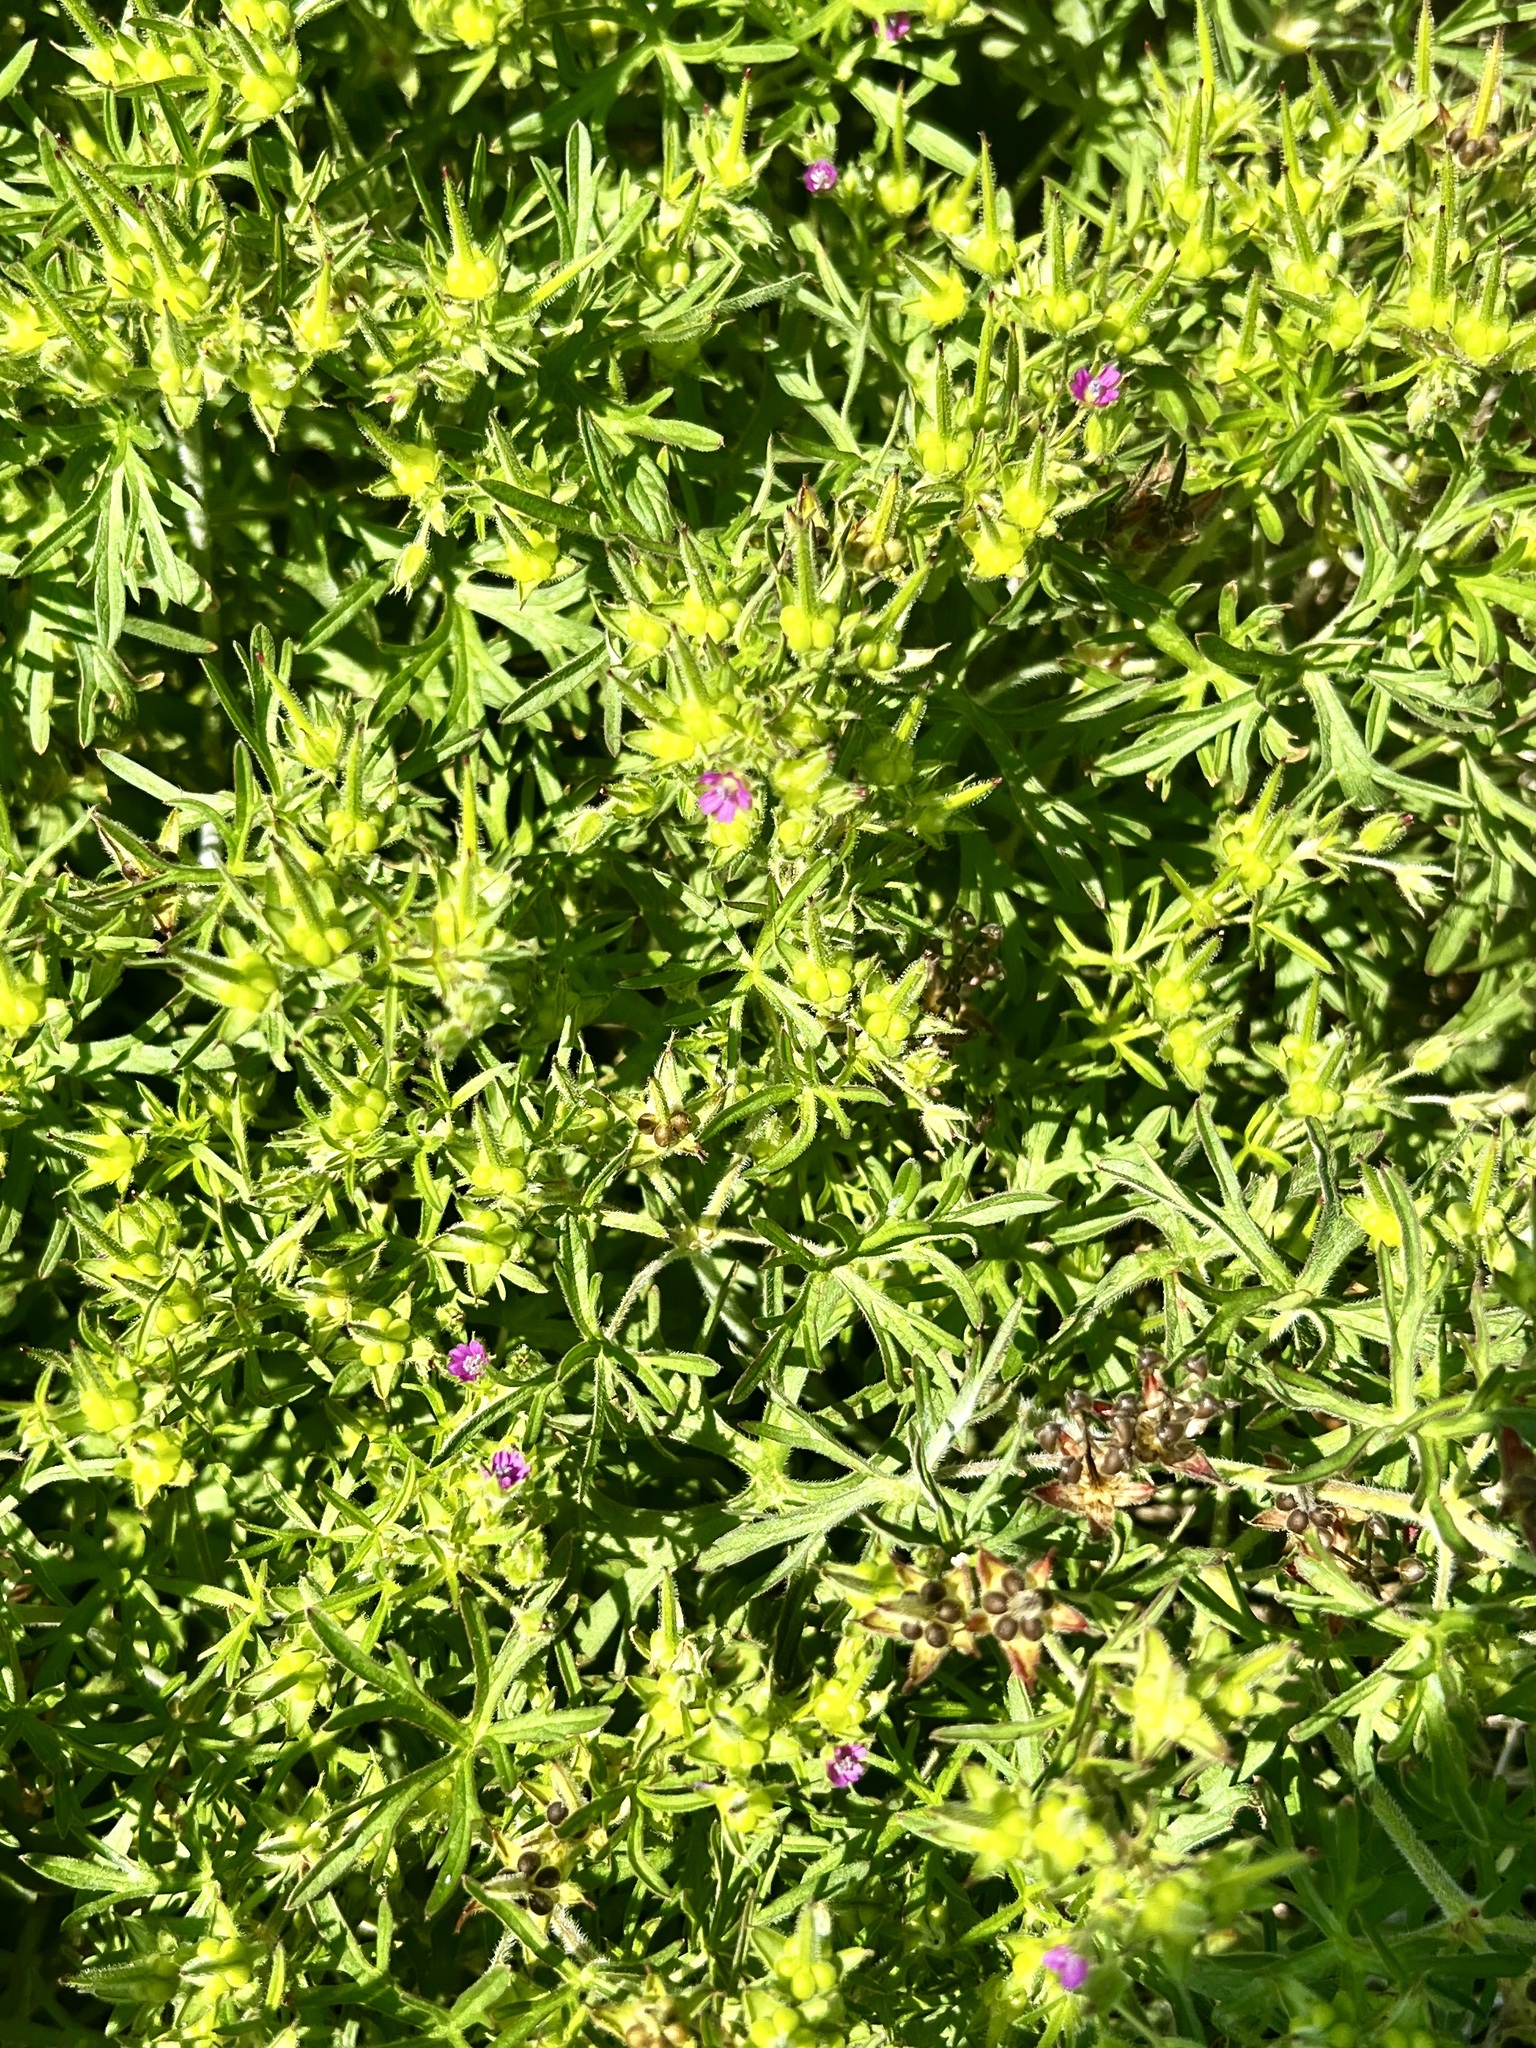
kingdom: Plantae
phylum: Tracheophyta
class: Magnoliopsida
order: Geraniales
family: Geraniaceae
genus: Geranium
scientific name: Geranium dissectum
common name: Cut-leaved crane's-bill
